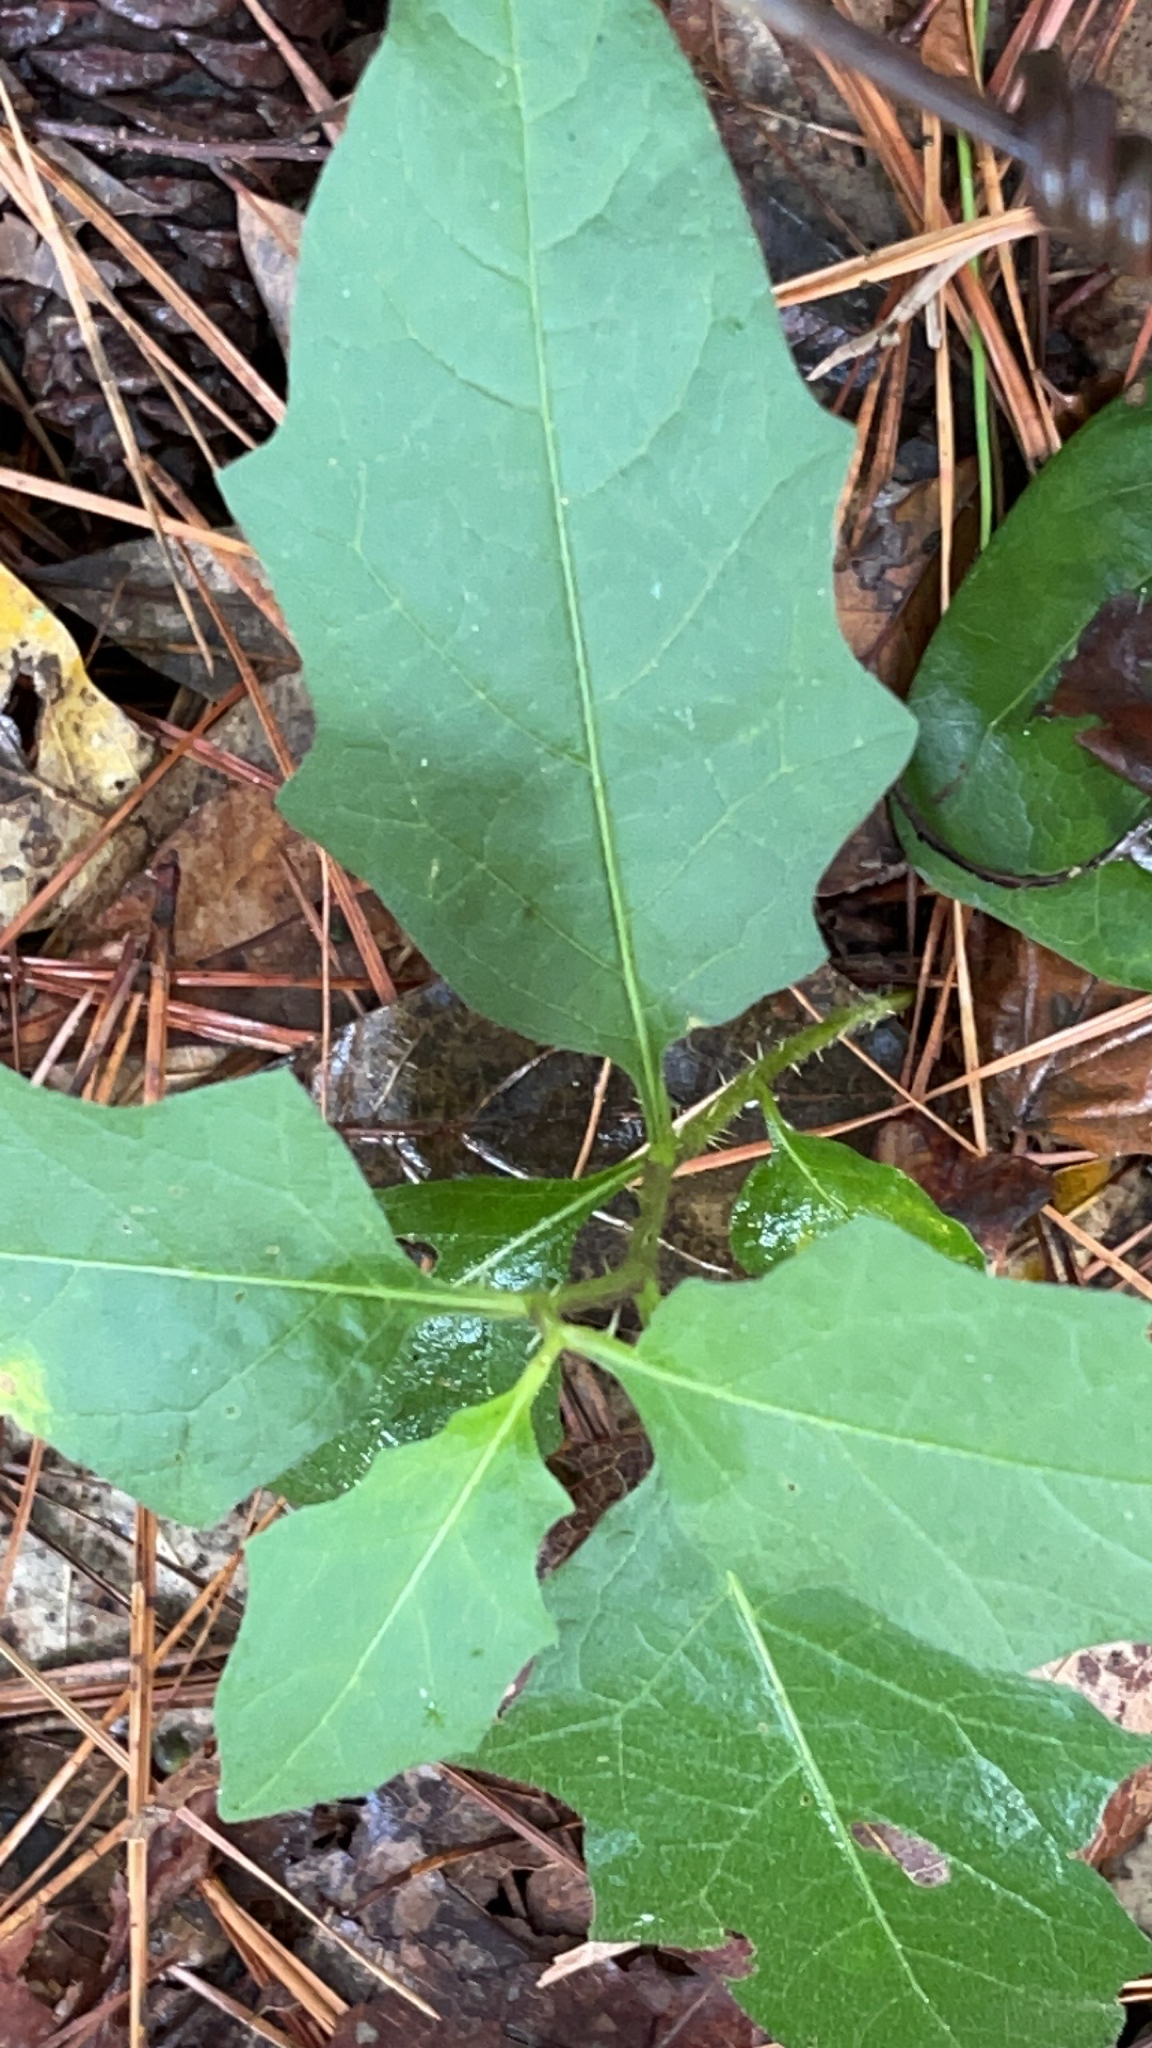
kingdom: Plantae
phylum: Tracheophyta
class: Magnoliopsida
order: Solanales
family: Solanaceae
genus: Solanum
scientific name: Solanum carolinense
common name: Horse-nettle
